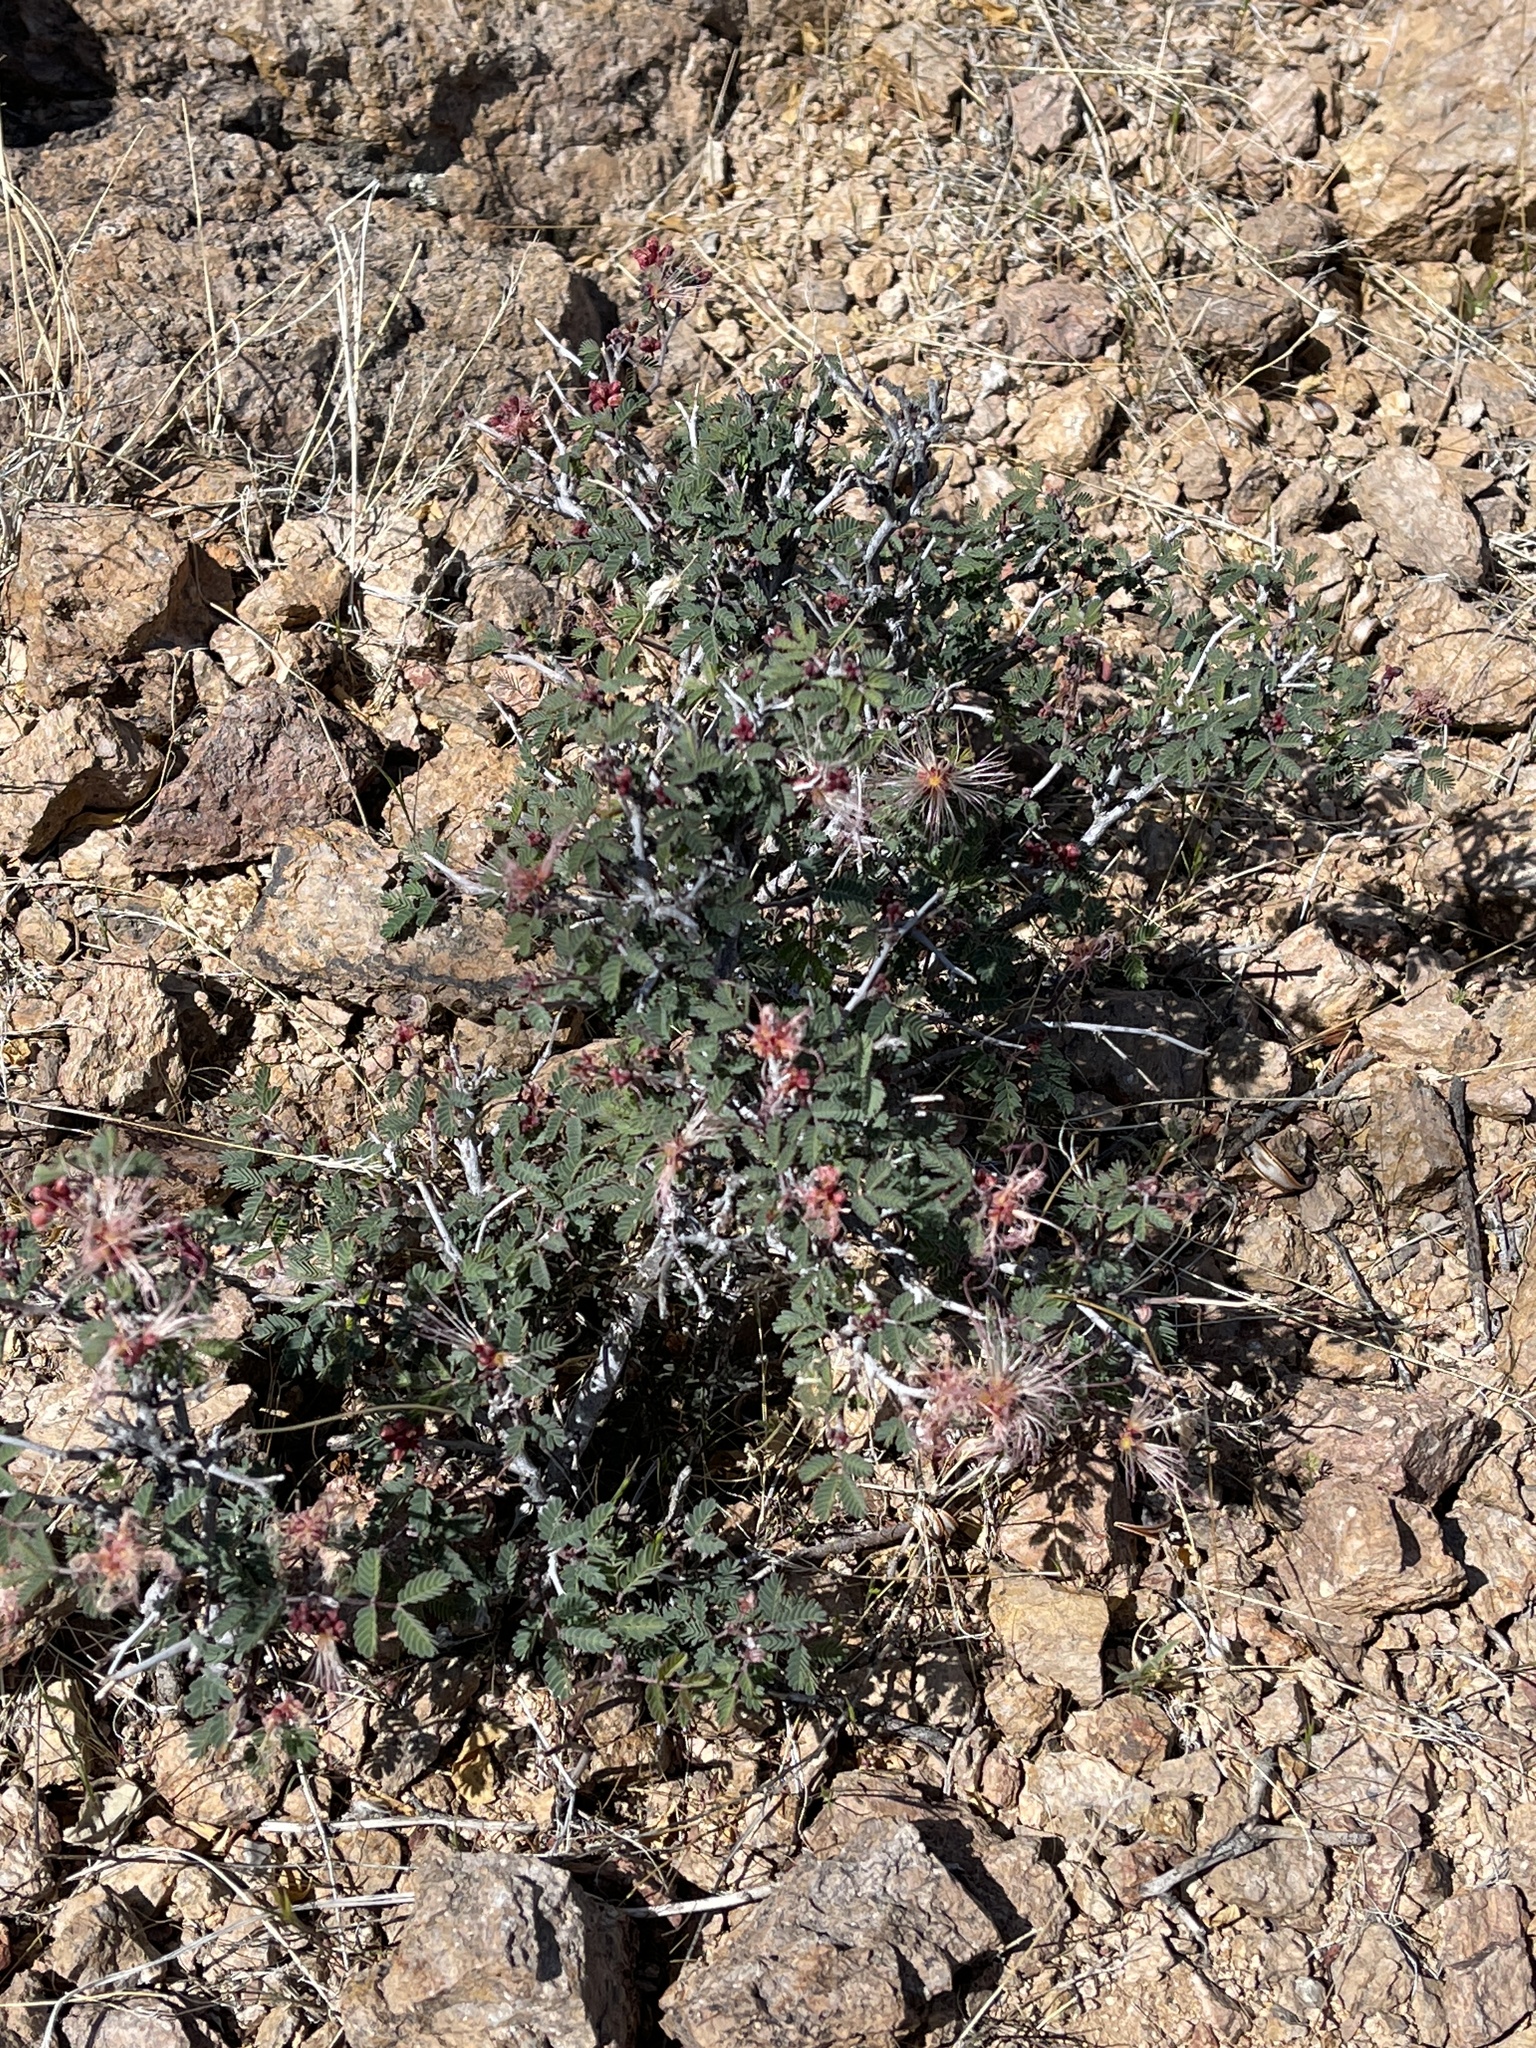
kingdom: Plantae
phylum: Tracheophyta
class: Magnoliopsida
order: Fabales
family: Fabaceae
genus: Calliandra
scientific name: Calliandra eriophylla
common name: Fairy-duster
